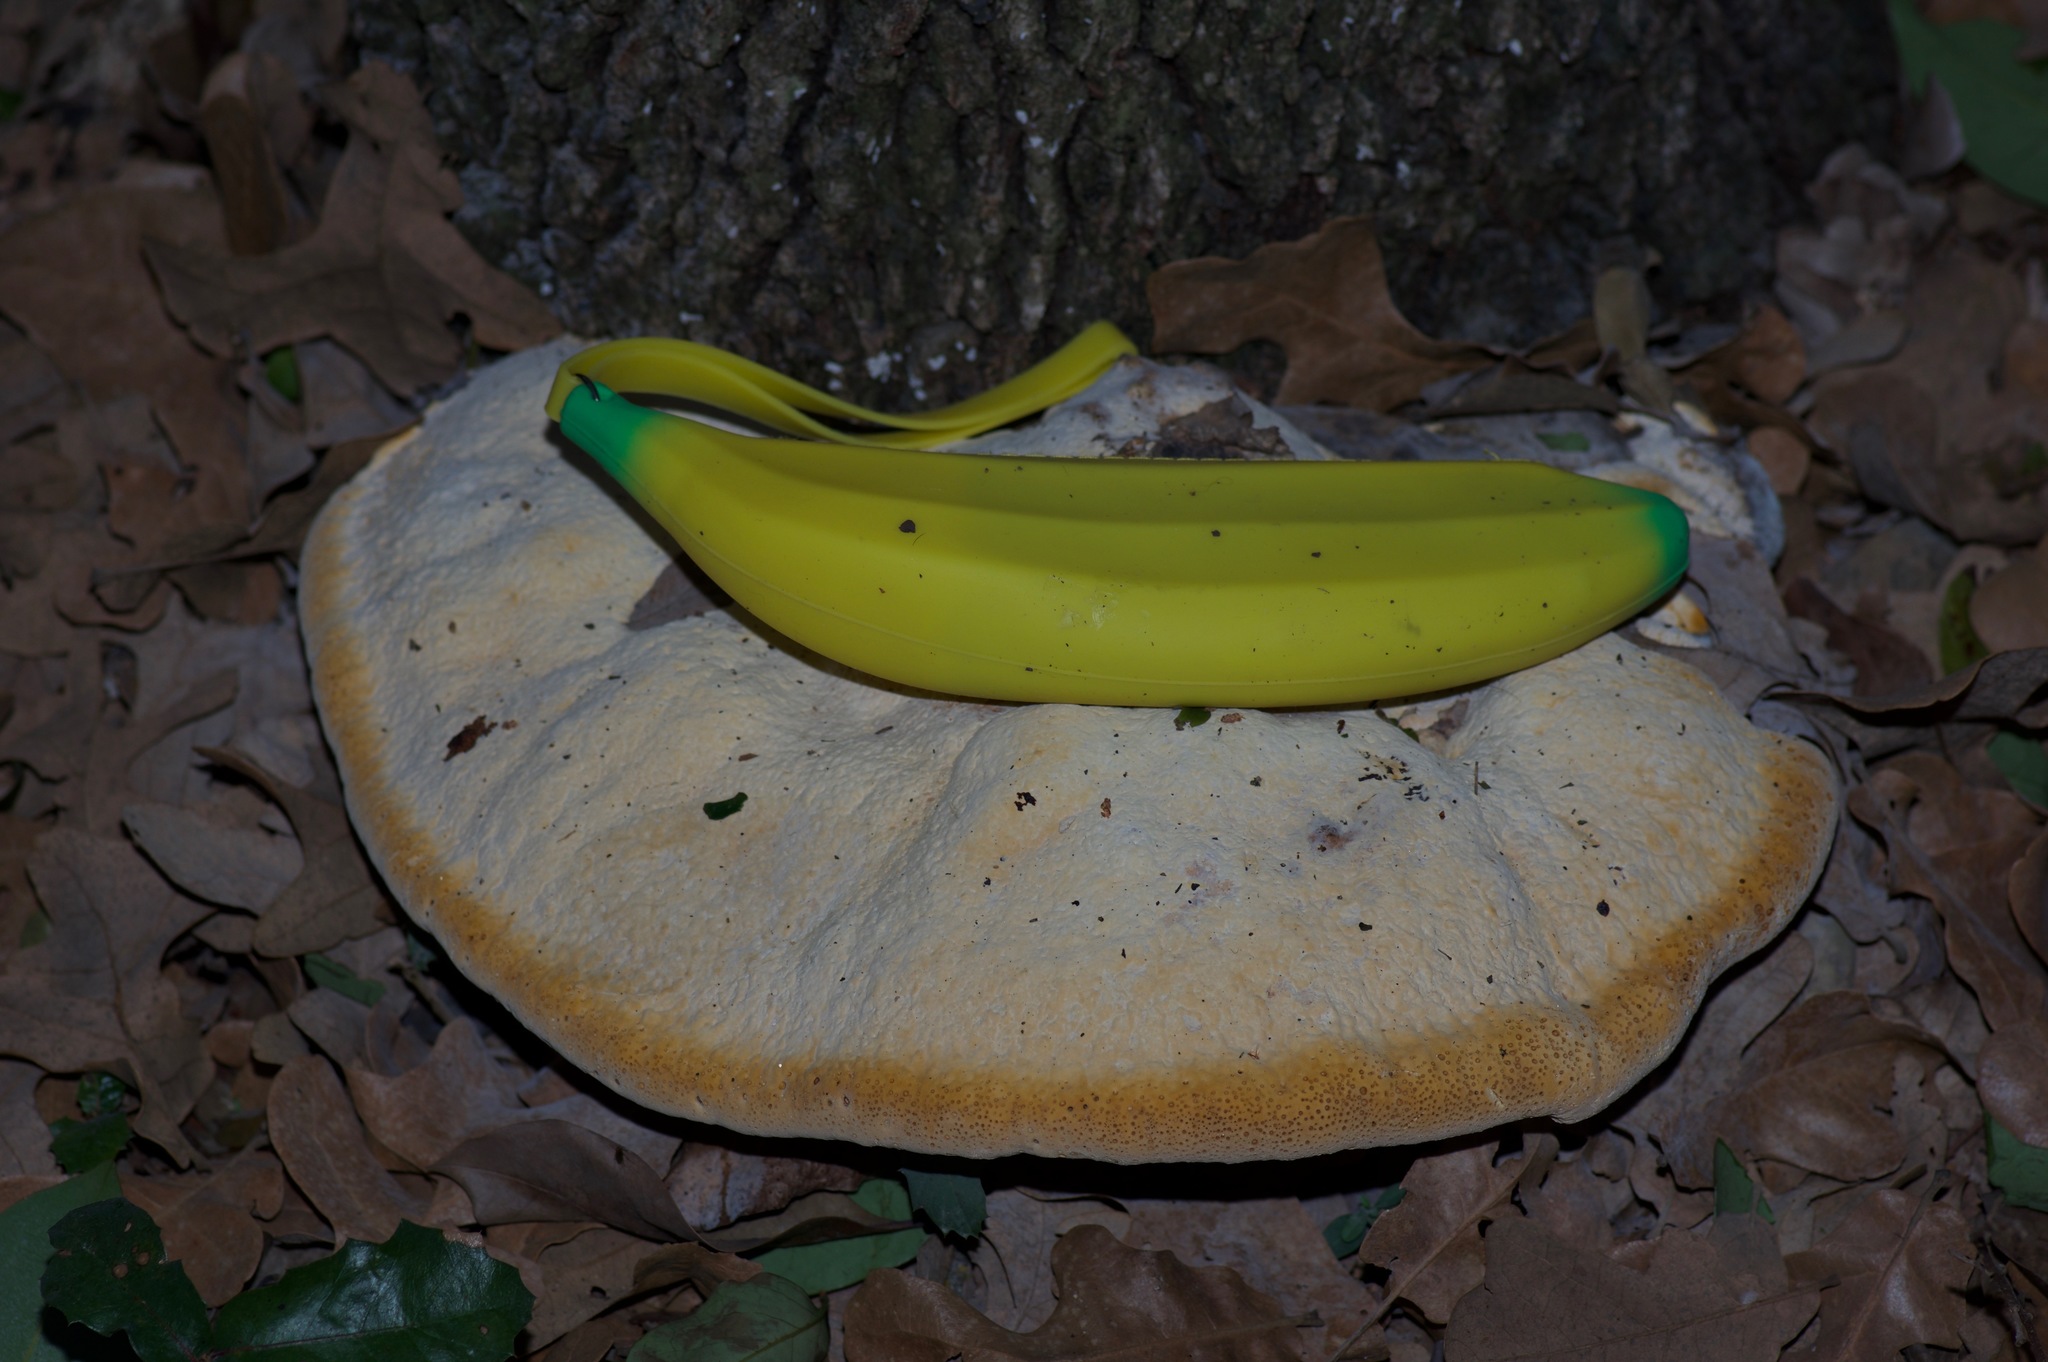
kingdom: Fungi
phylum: Basidiomycota
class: Agaricomycetes
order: Hymenochaetales
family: Hymenochaetaceae
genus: Pseudoinonotus
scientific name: Pseudoinonotus dryadeus
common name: Oak bracket
